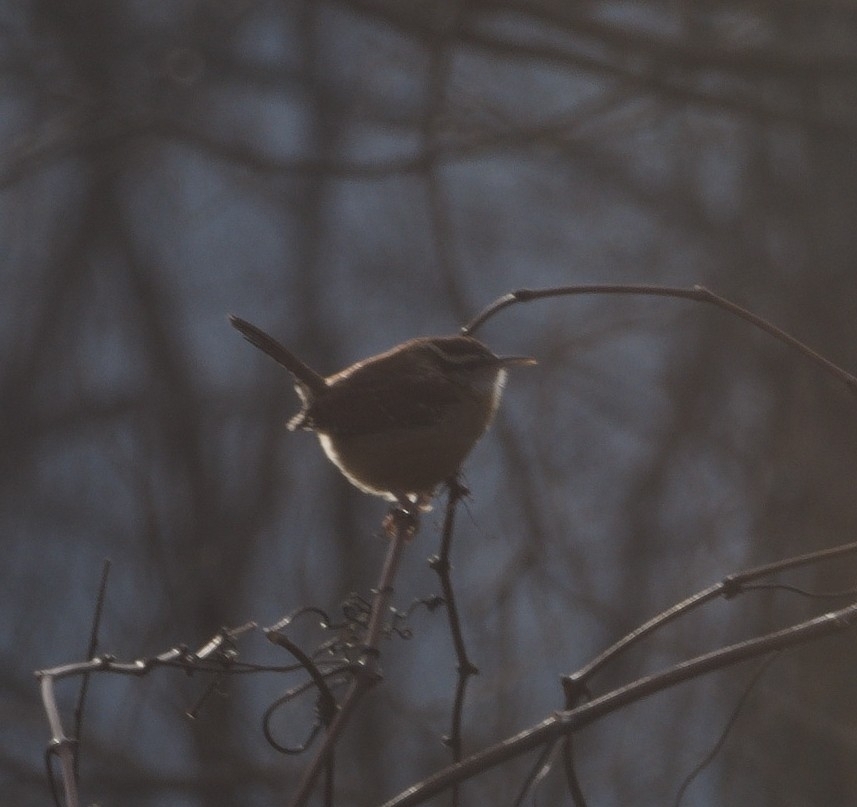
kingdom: Animalia
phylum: Chordata
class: Aves
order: Passeriformes
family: Troglodytidae
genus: Thryothorus
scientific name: Thryothorus ludovicianus
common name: Carolina wren
